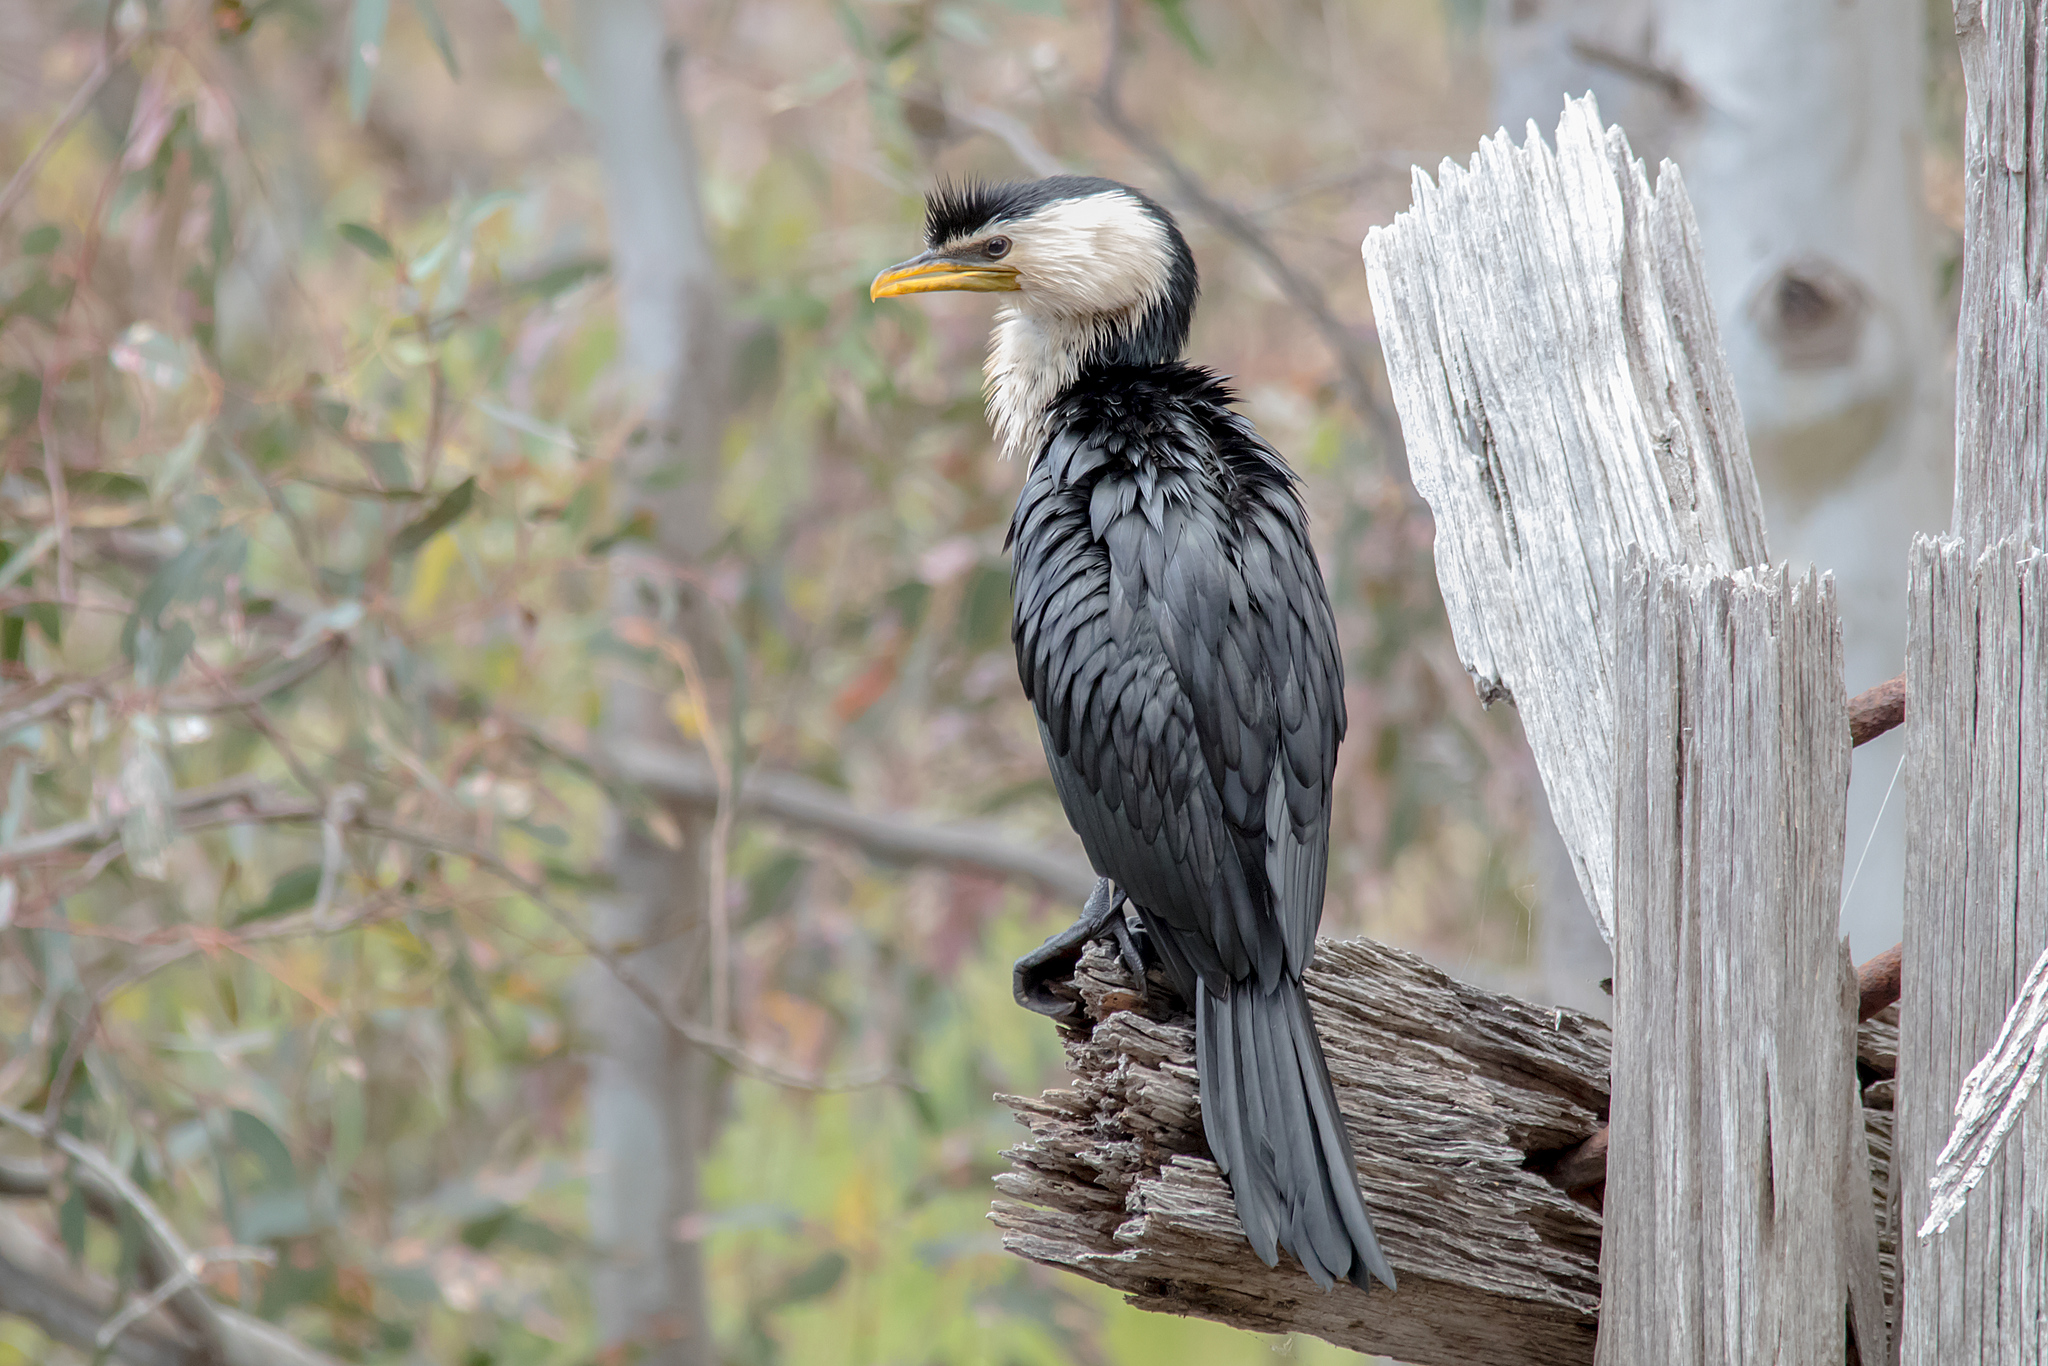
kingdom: Animalia
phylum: Chordata
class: Aves
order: Suliformes
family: Phalacrocoracidae
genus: Microcarbo
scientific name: Microcarbo melanoleucos
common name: Little pied cormorant
